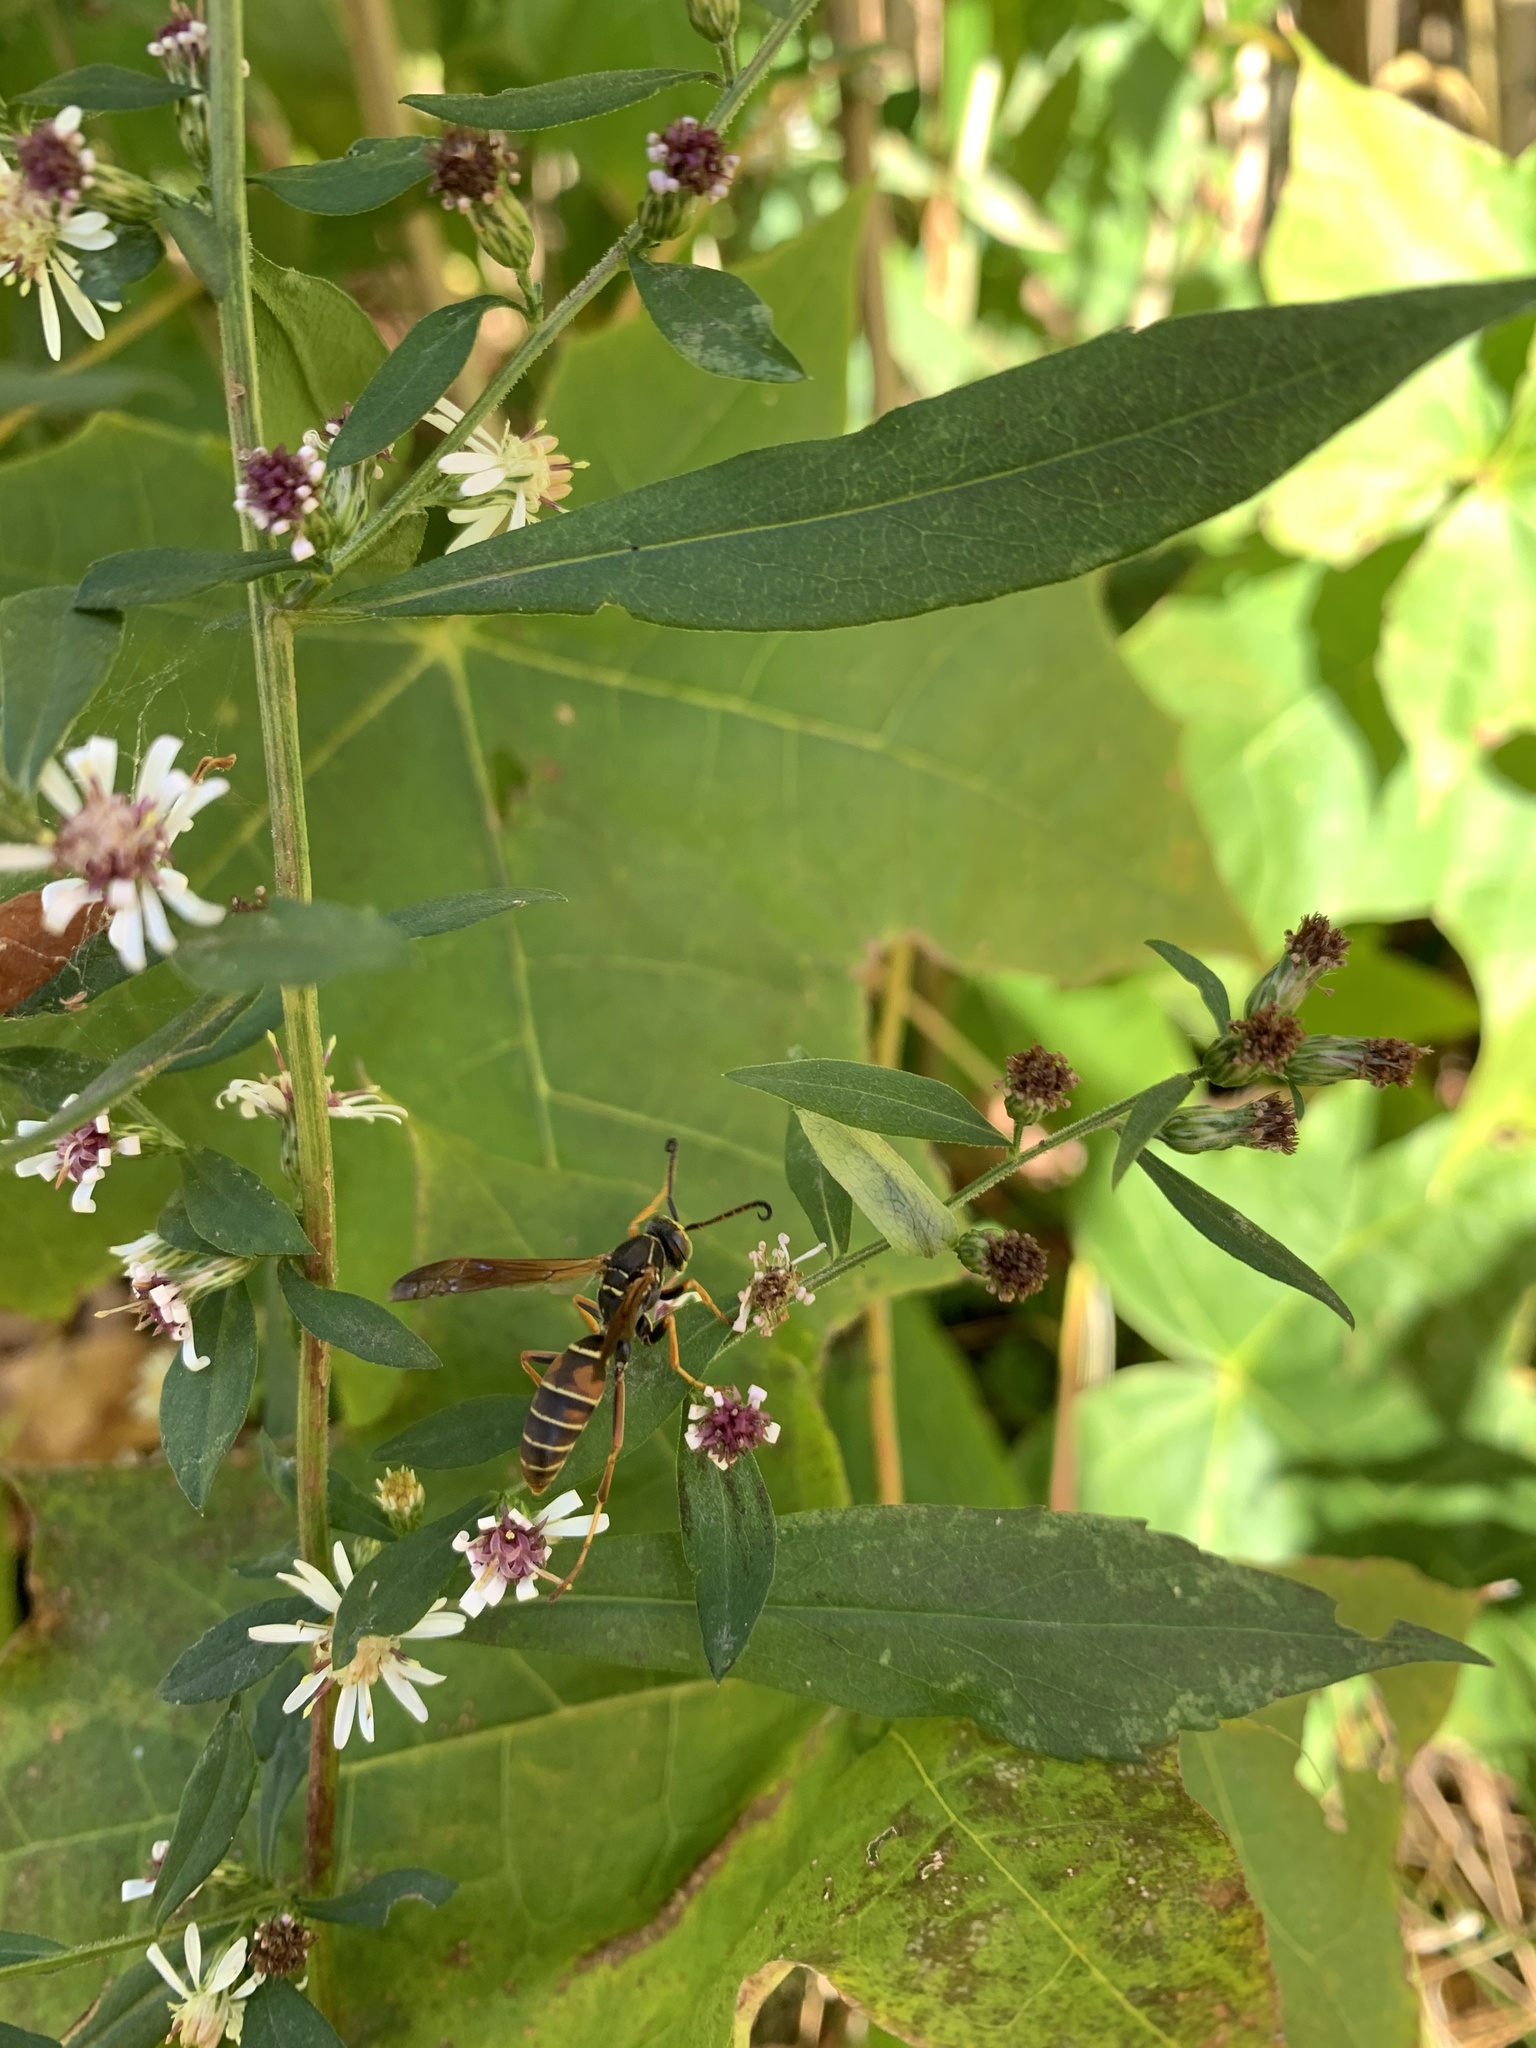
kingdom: Animalia
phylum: Arthropoda
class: Insecta
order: Hymenoptera
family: Eumenidae
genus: Polistes
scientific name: Polistes fuscatus
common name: Dark paper wasp
